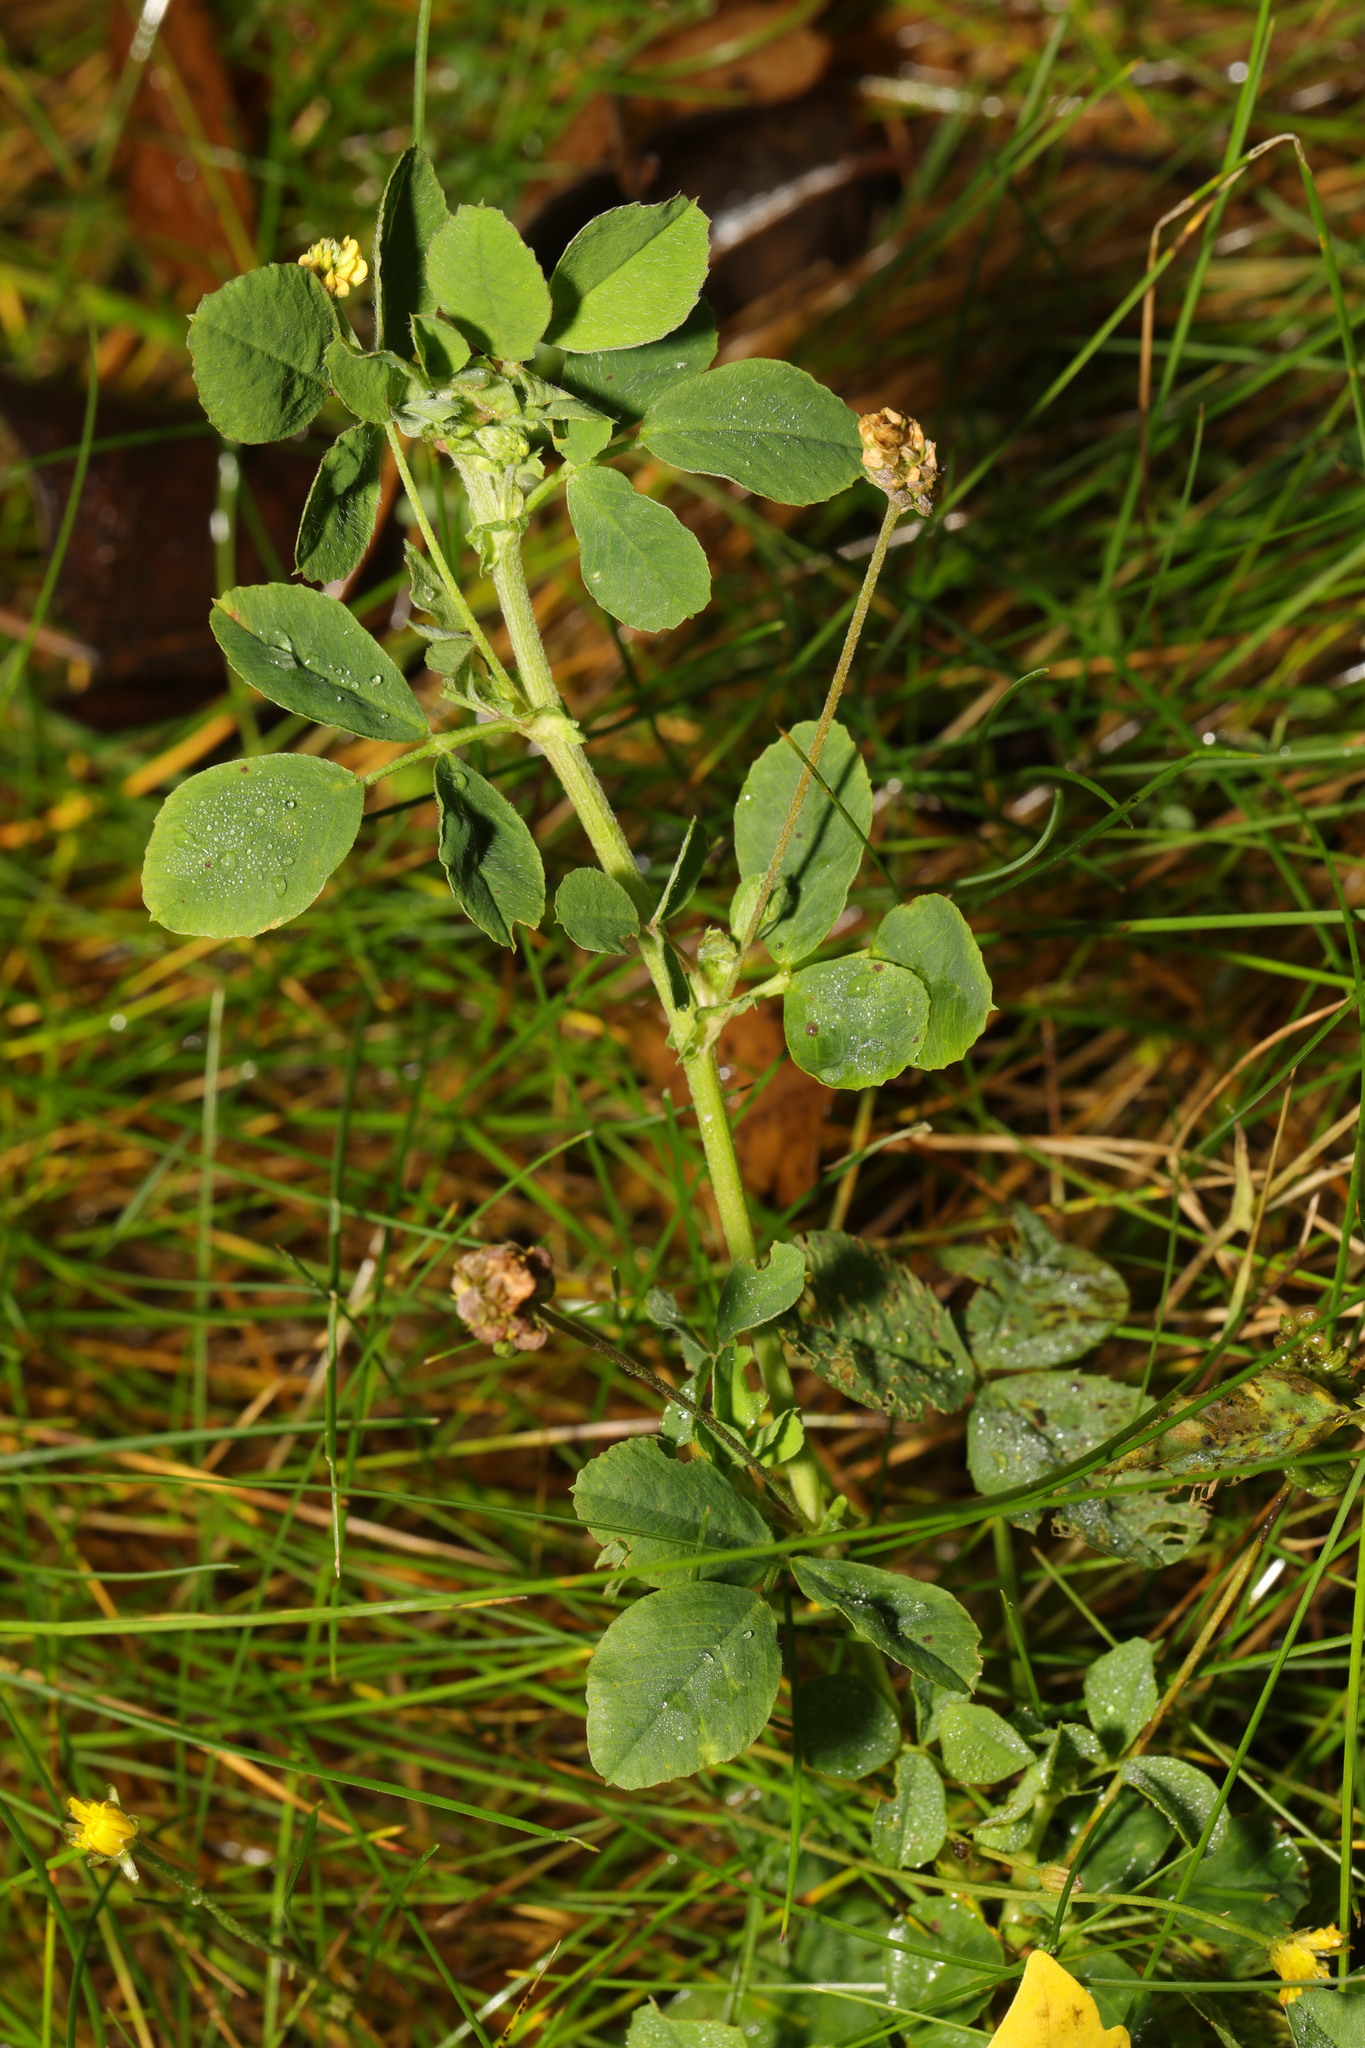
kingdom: Plantae
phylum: Tracheophyta
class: Magnoliopsida
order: Fabales
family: Fabaceae
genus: Medicago
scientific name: Medicago lupulina
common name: Black medick
